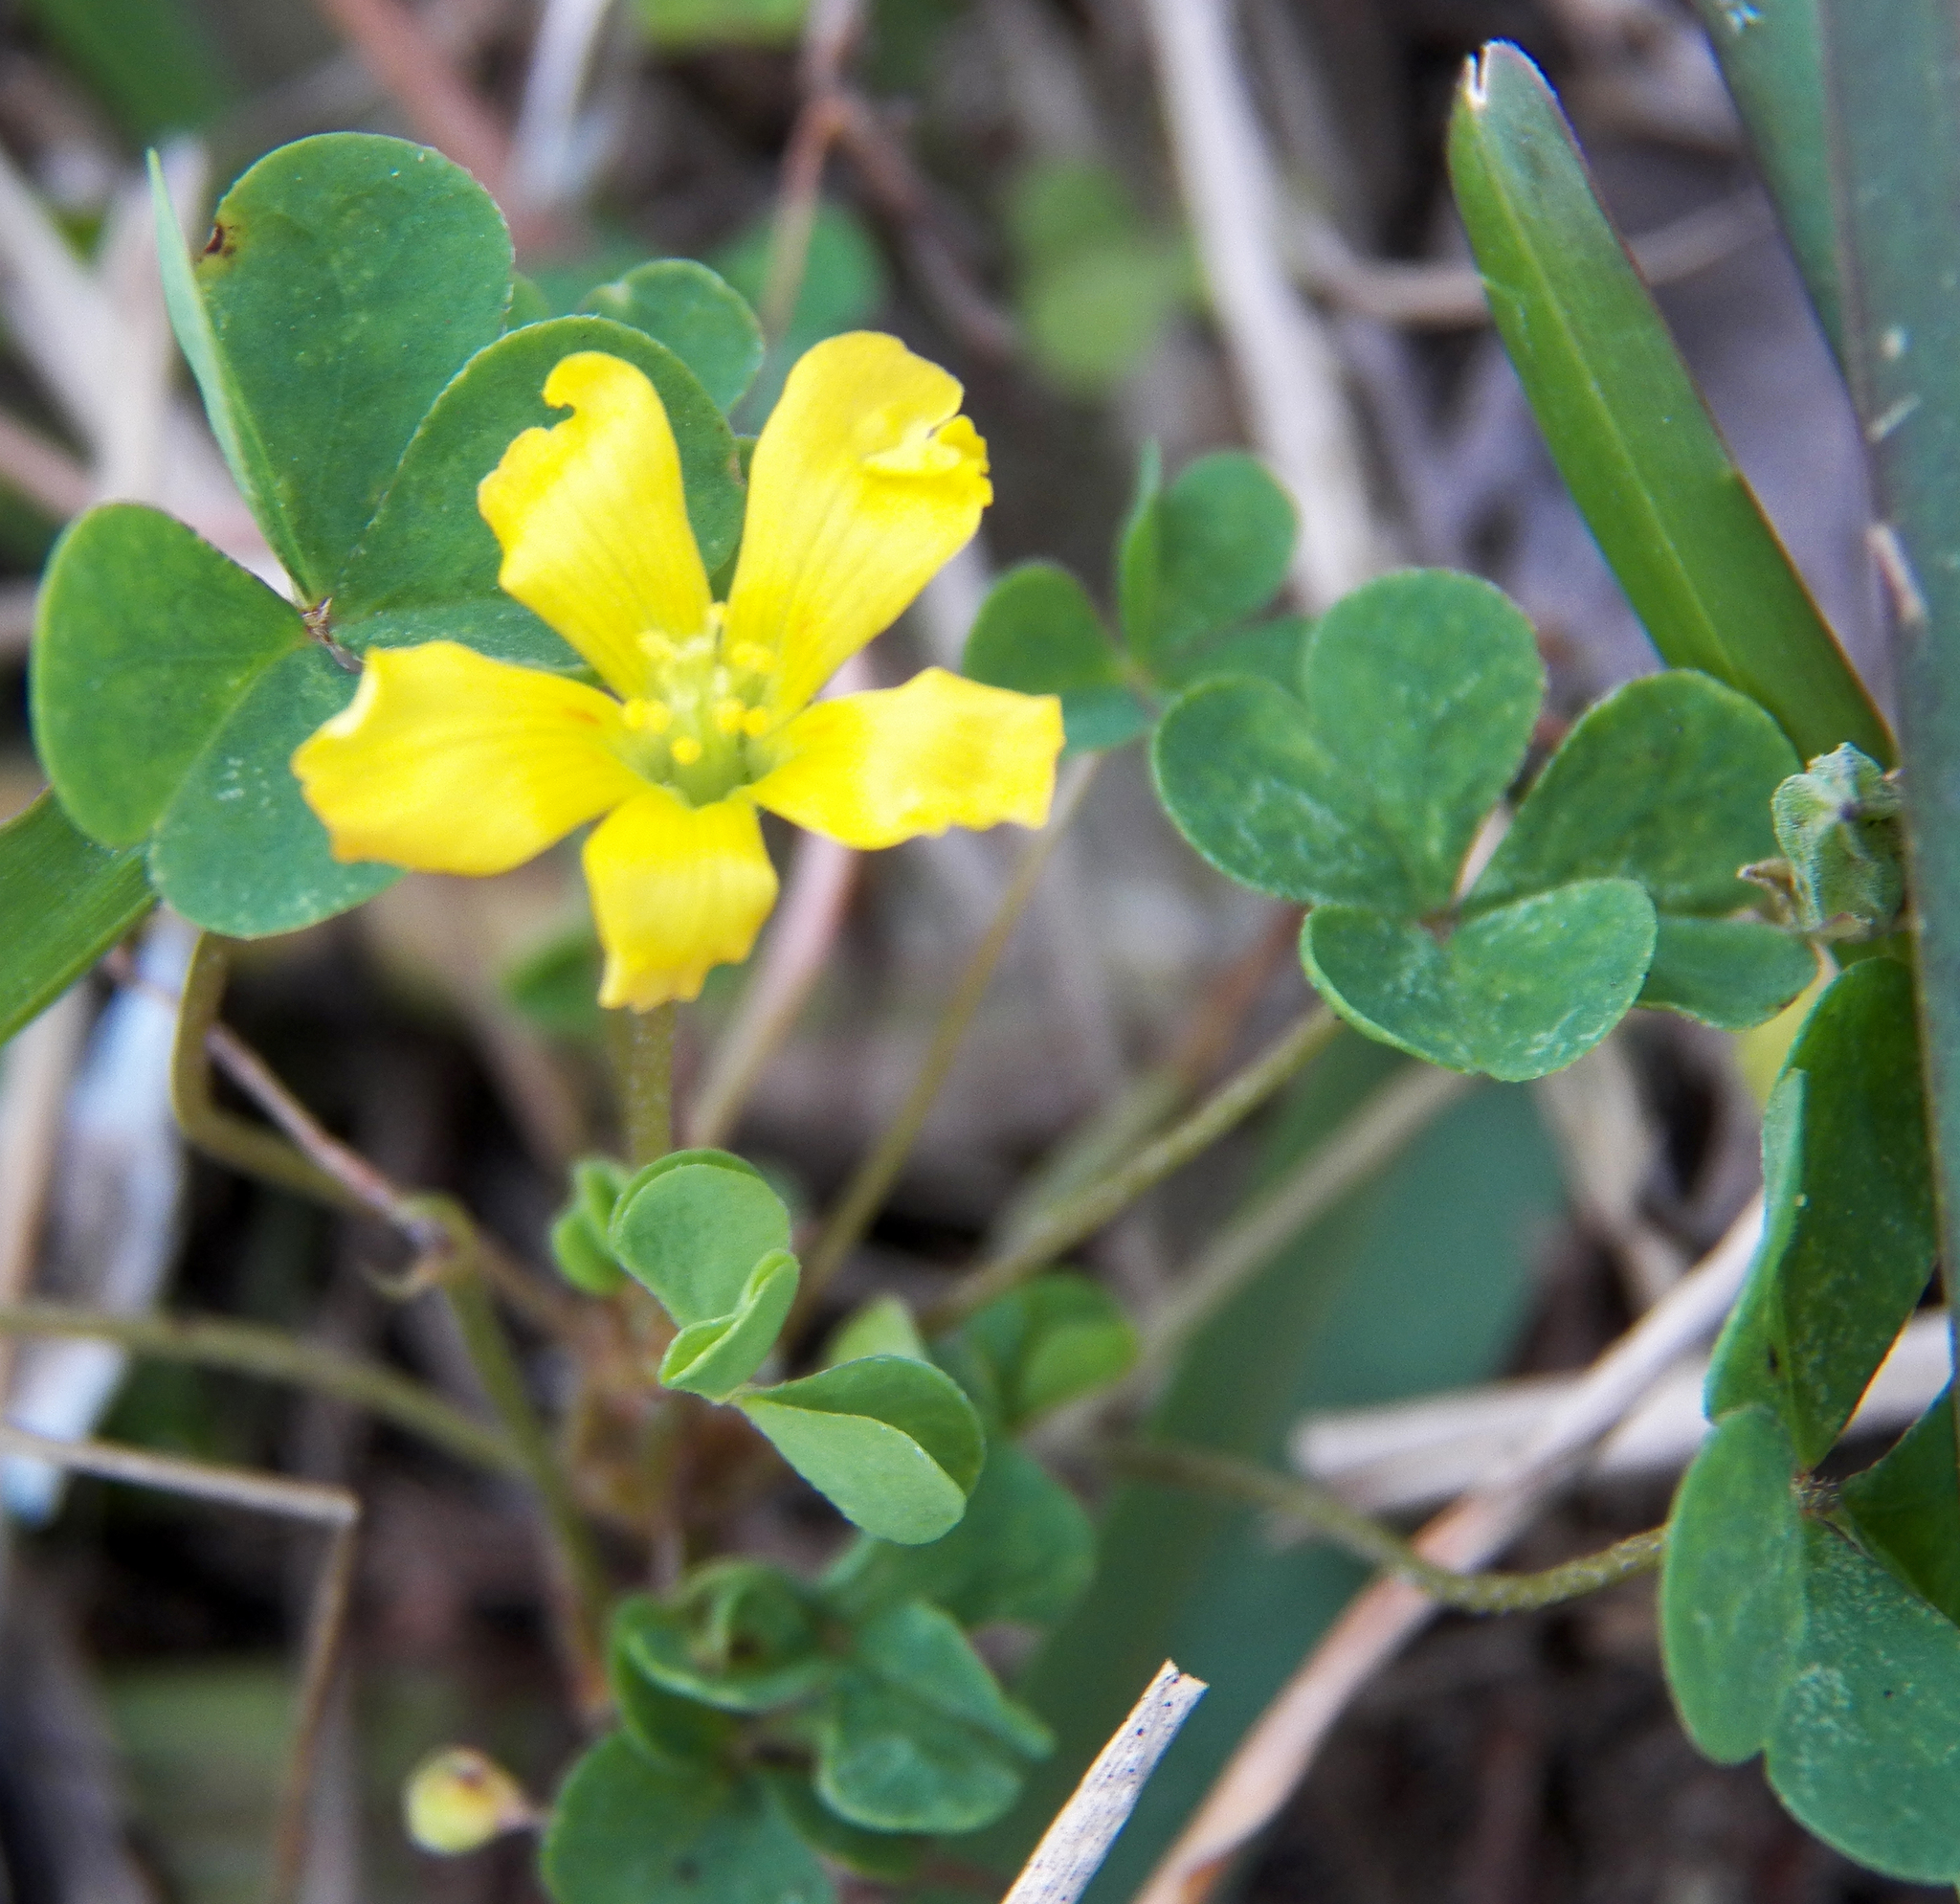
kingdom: Plantae
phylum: Tracheophyta
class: Magnoliopsida
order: Oxalidales
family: Oxalidaceae
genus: Oxalis
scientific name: Oxalis
